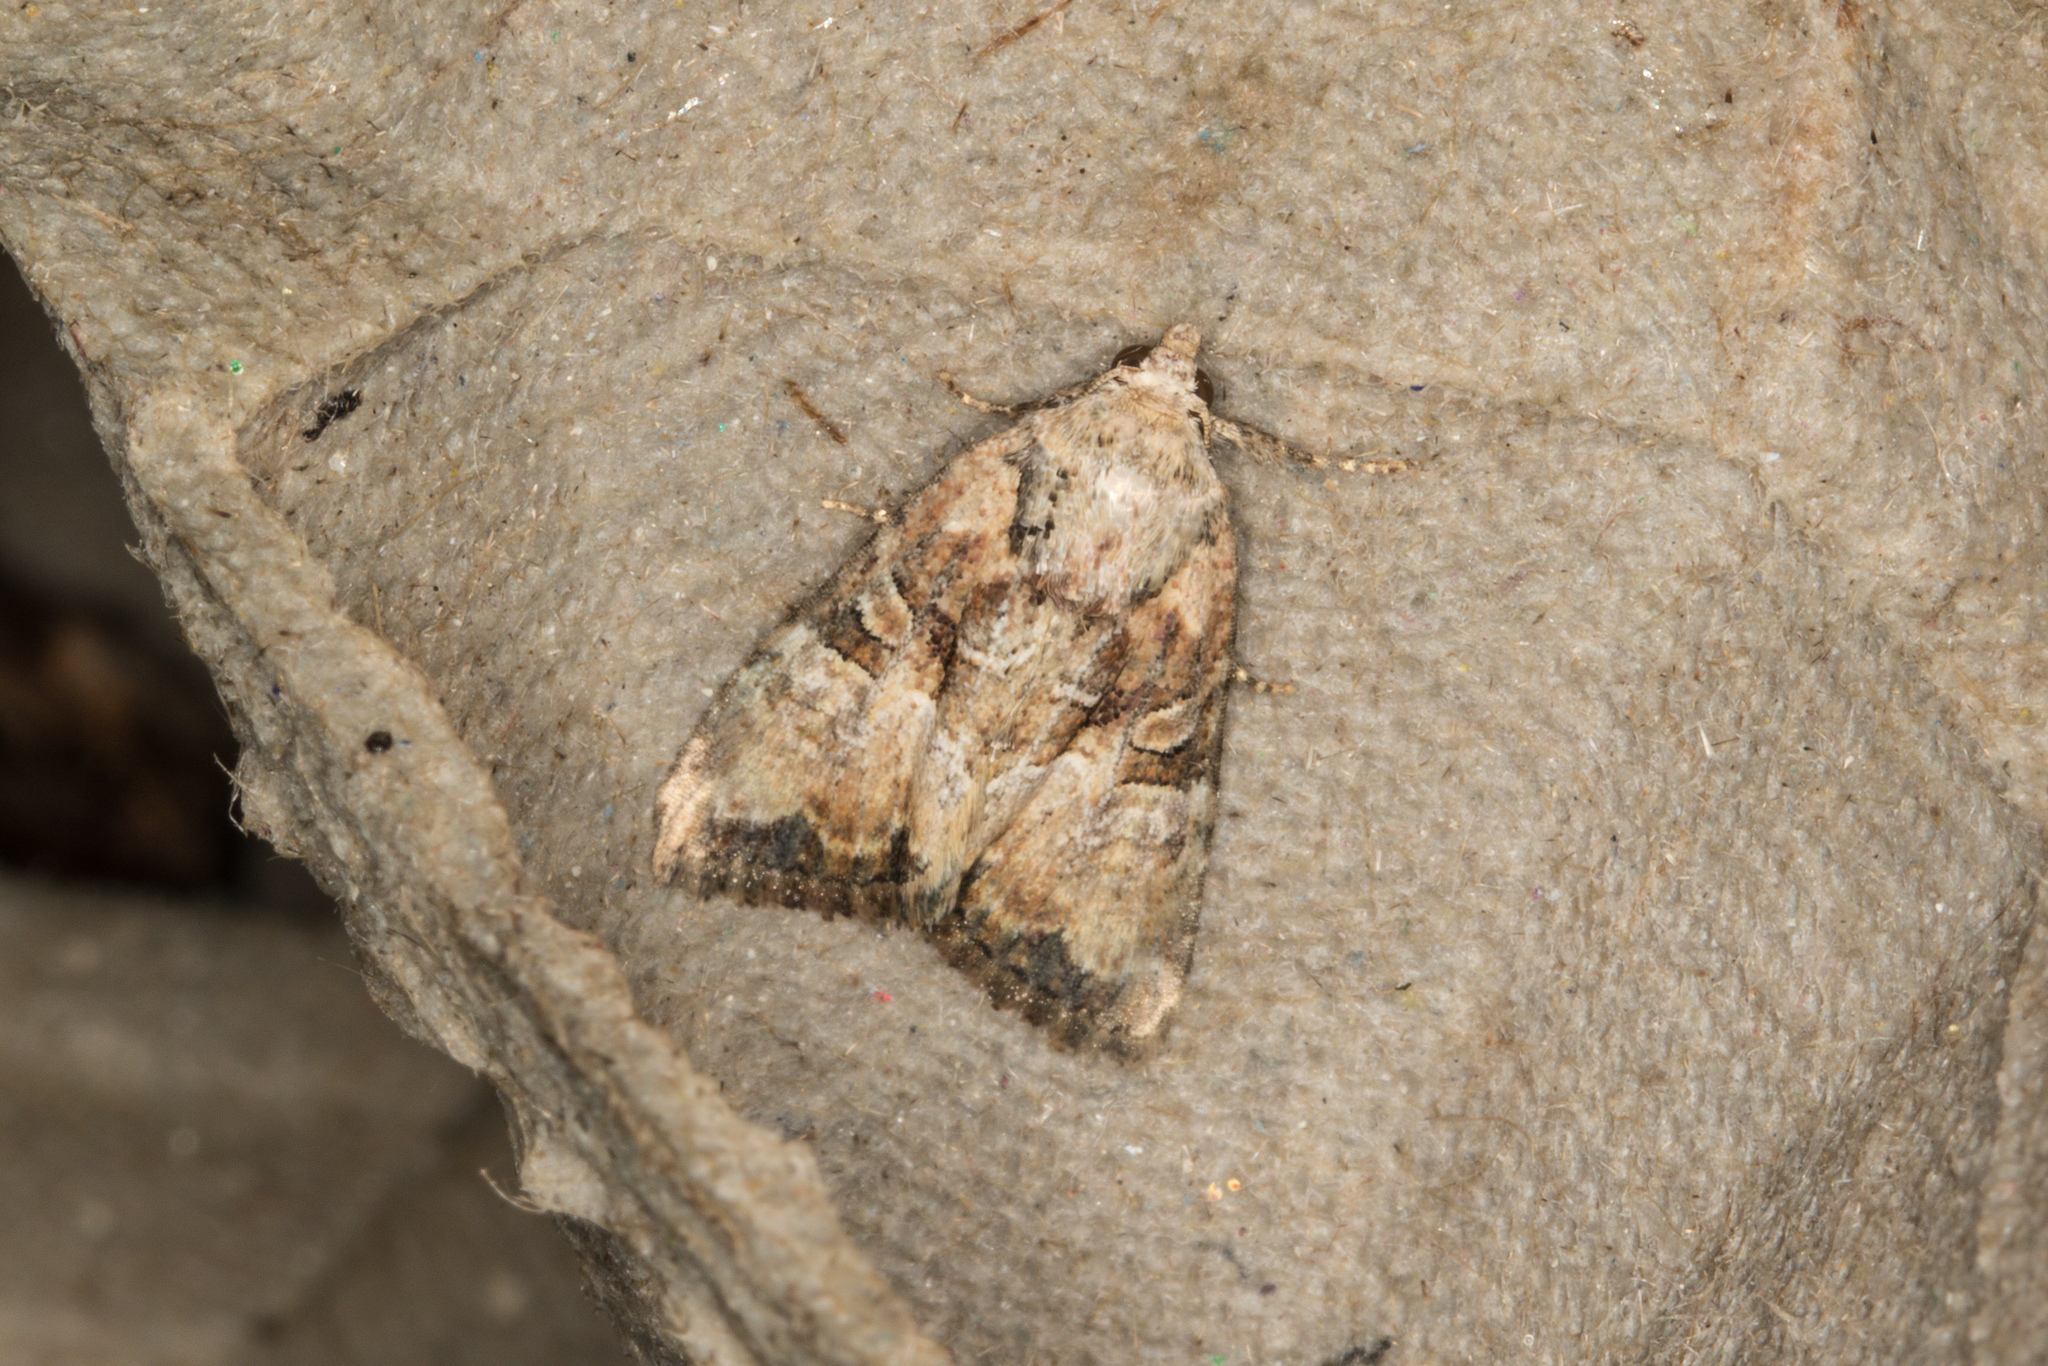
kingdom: Animalia
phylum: Arthropoda
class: Insecta
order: Lepidoptera
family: Noctuidae
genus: Mesoligia
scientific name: Mesoligia furuncula
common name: Cloaked minor
